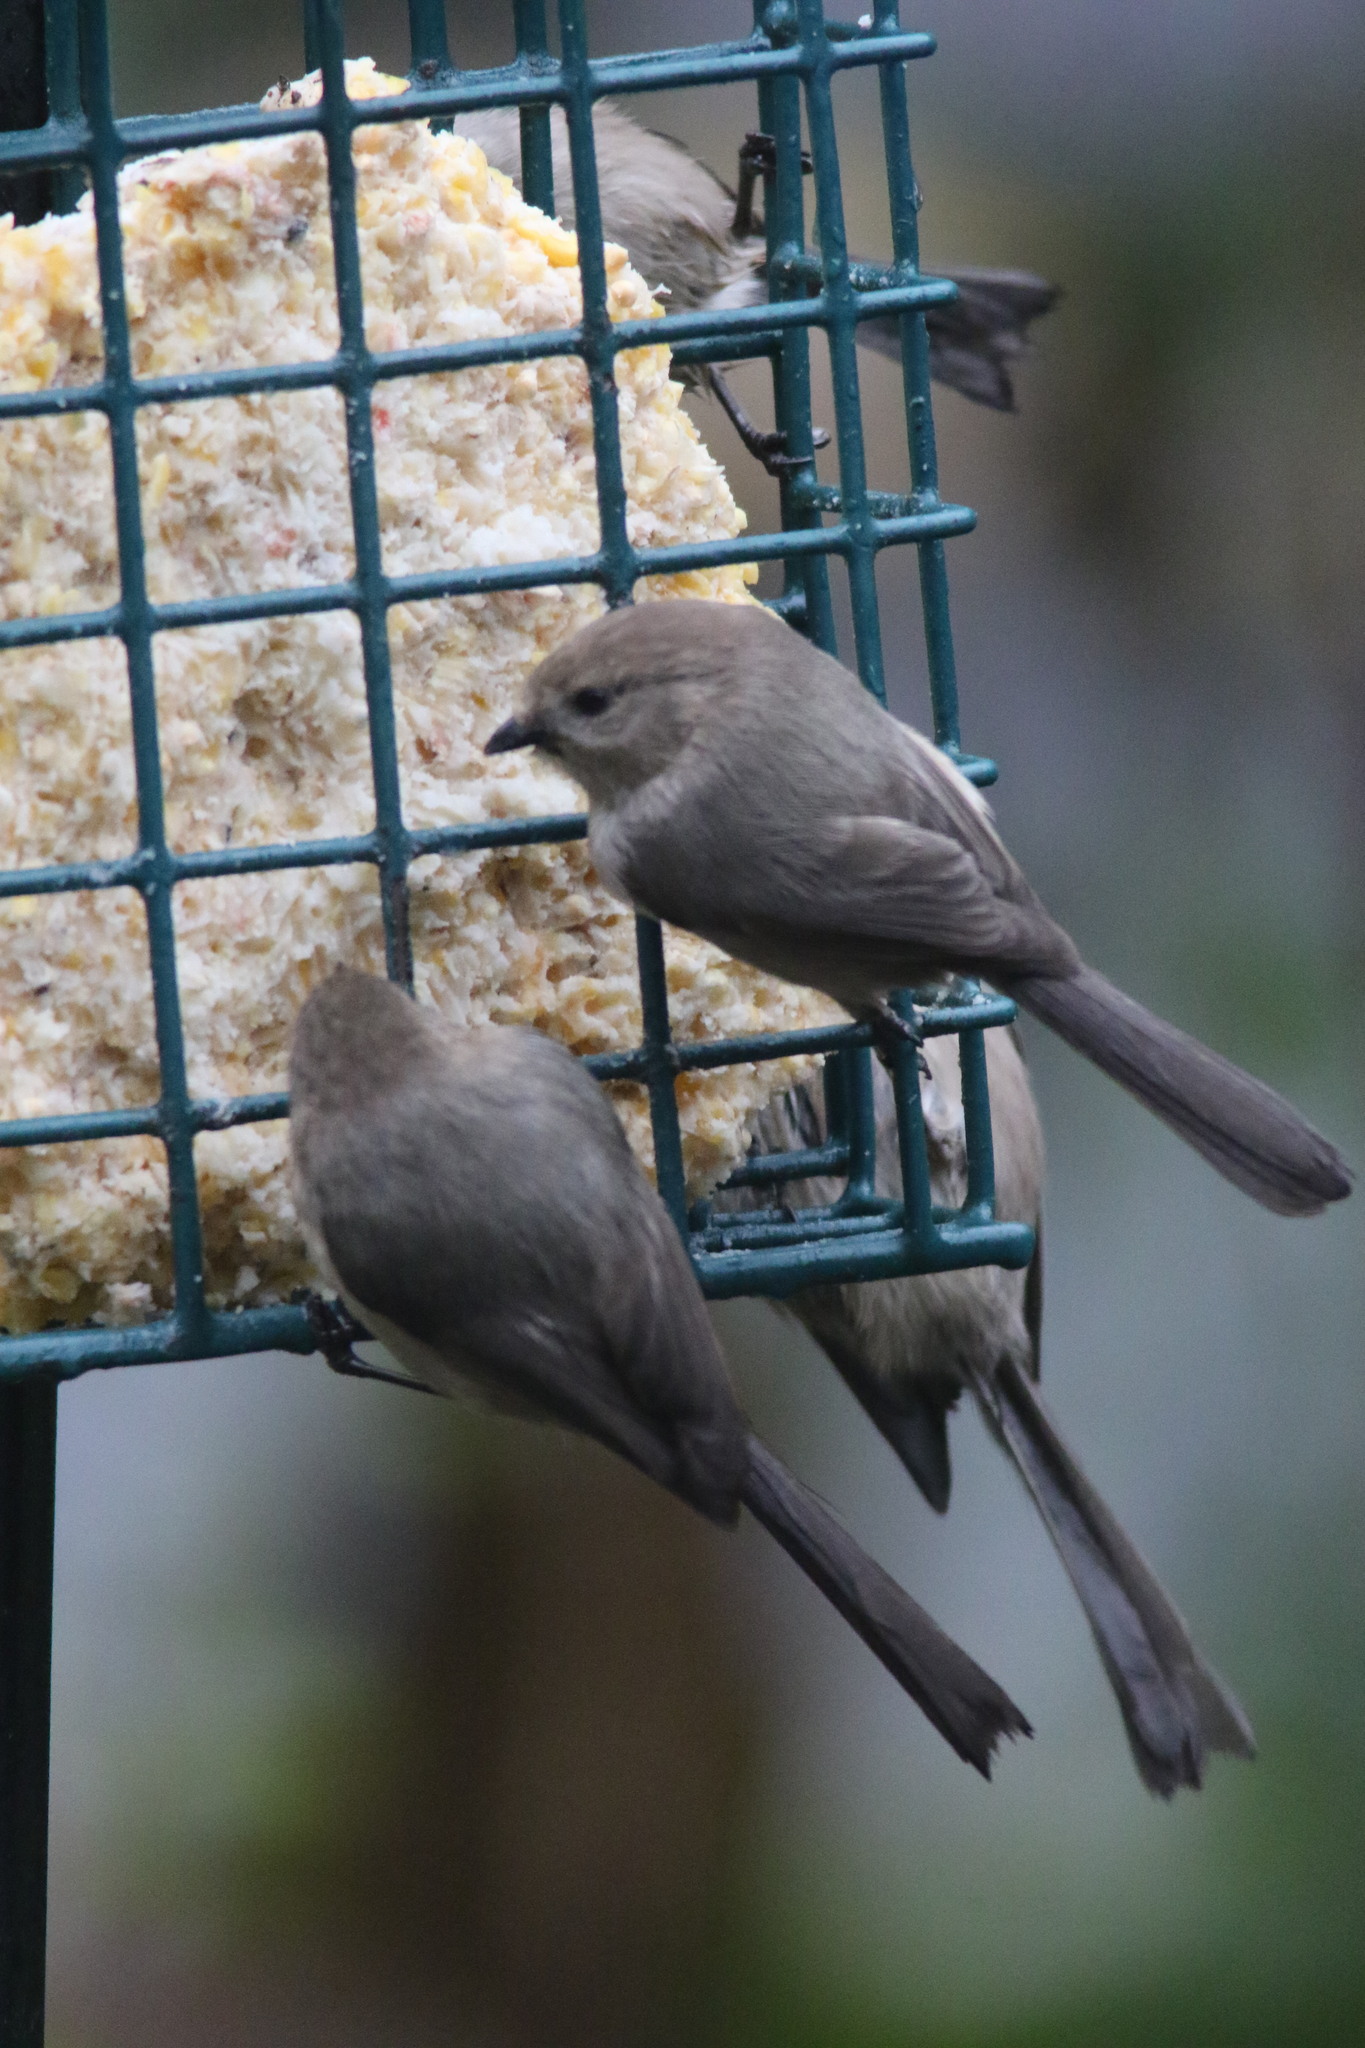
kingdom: Animalia
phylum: Chordata
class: Aves
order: Passeriformes
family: Aegithalidae
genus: Psaltriparus
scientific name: Psaltriparus minimus
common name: American bushtit
